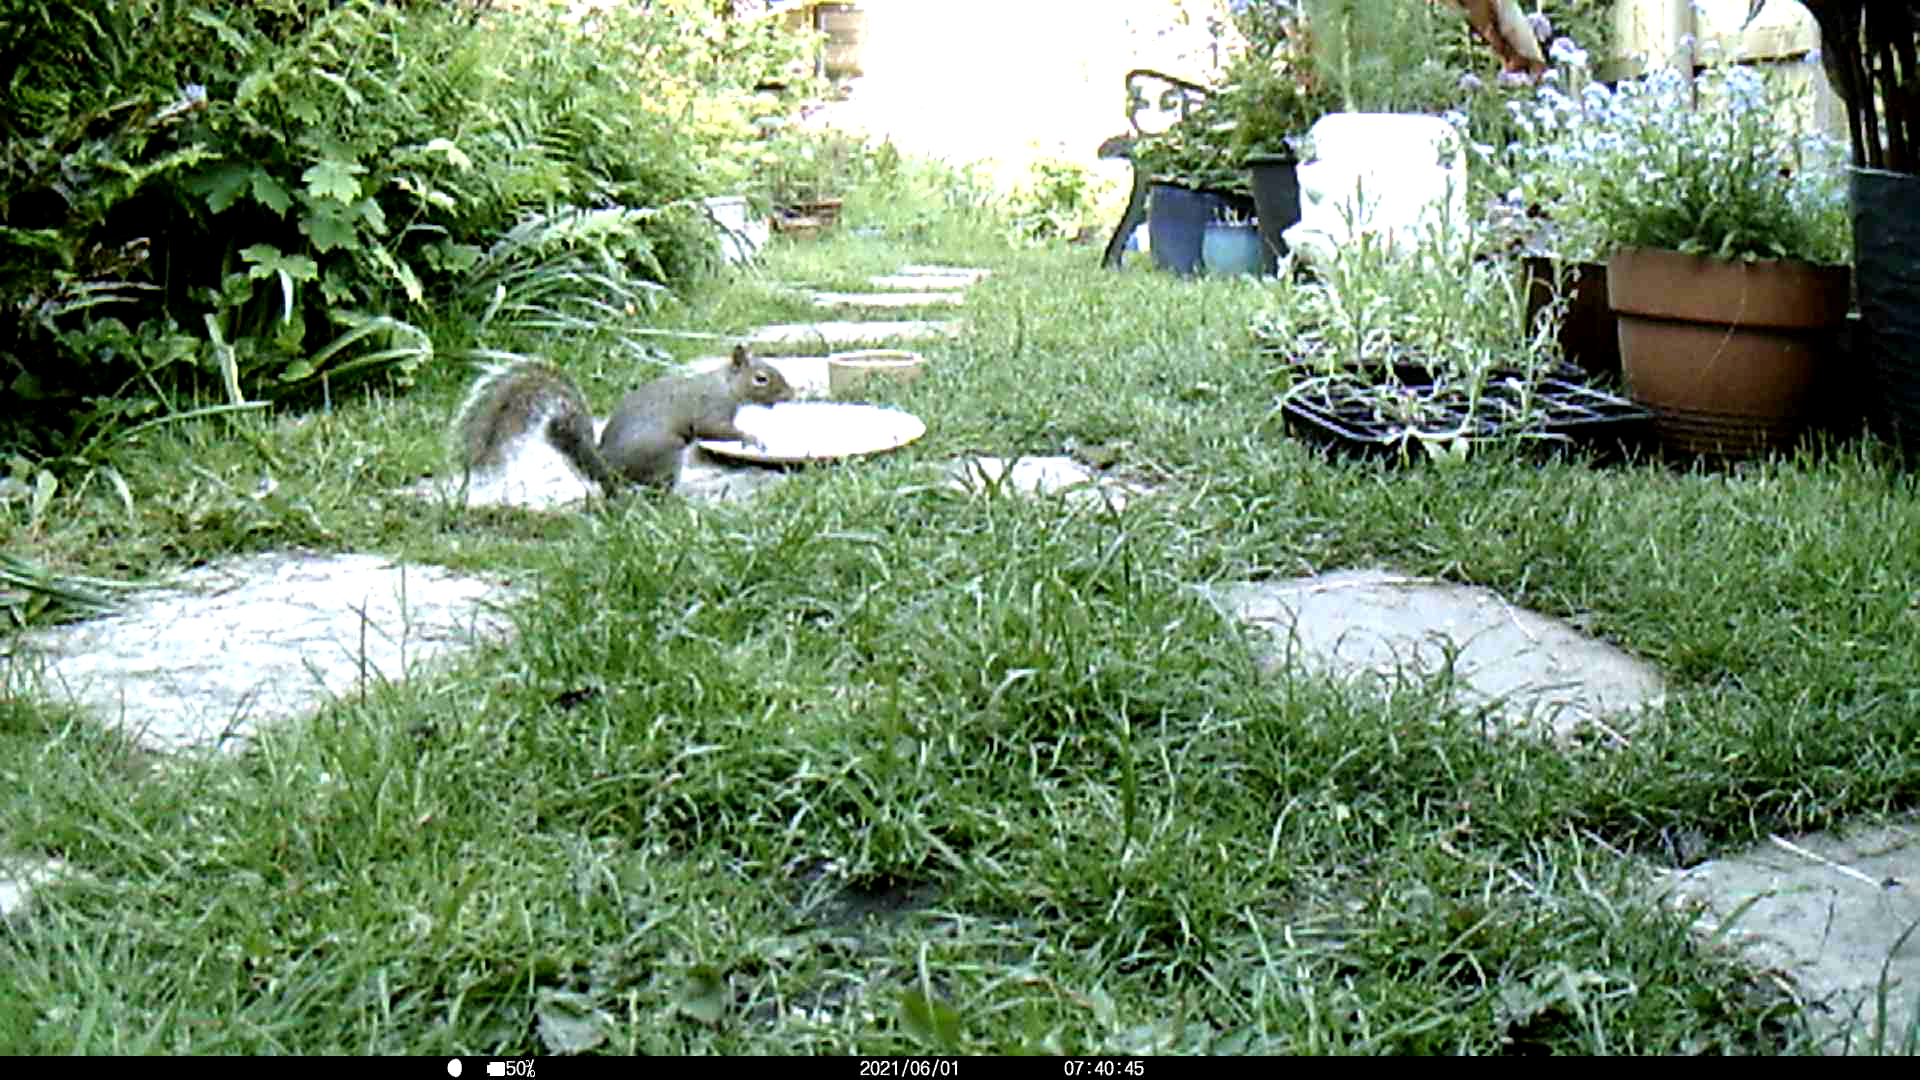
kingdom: Animalia
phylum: Chordata
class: Mammalia
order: Rodentia
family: Sciuridae
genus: Sciurus
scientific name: Sciurus carolinensis
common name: Eastern gray squirrel
